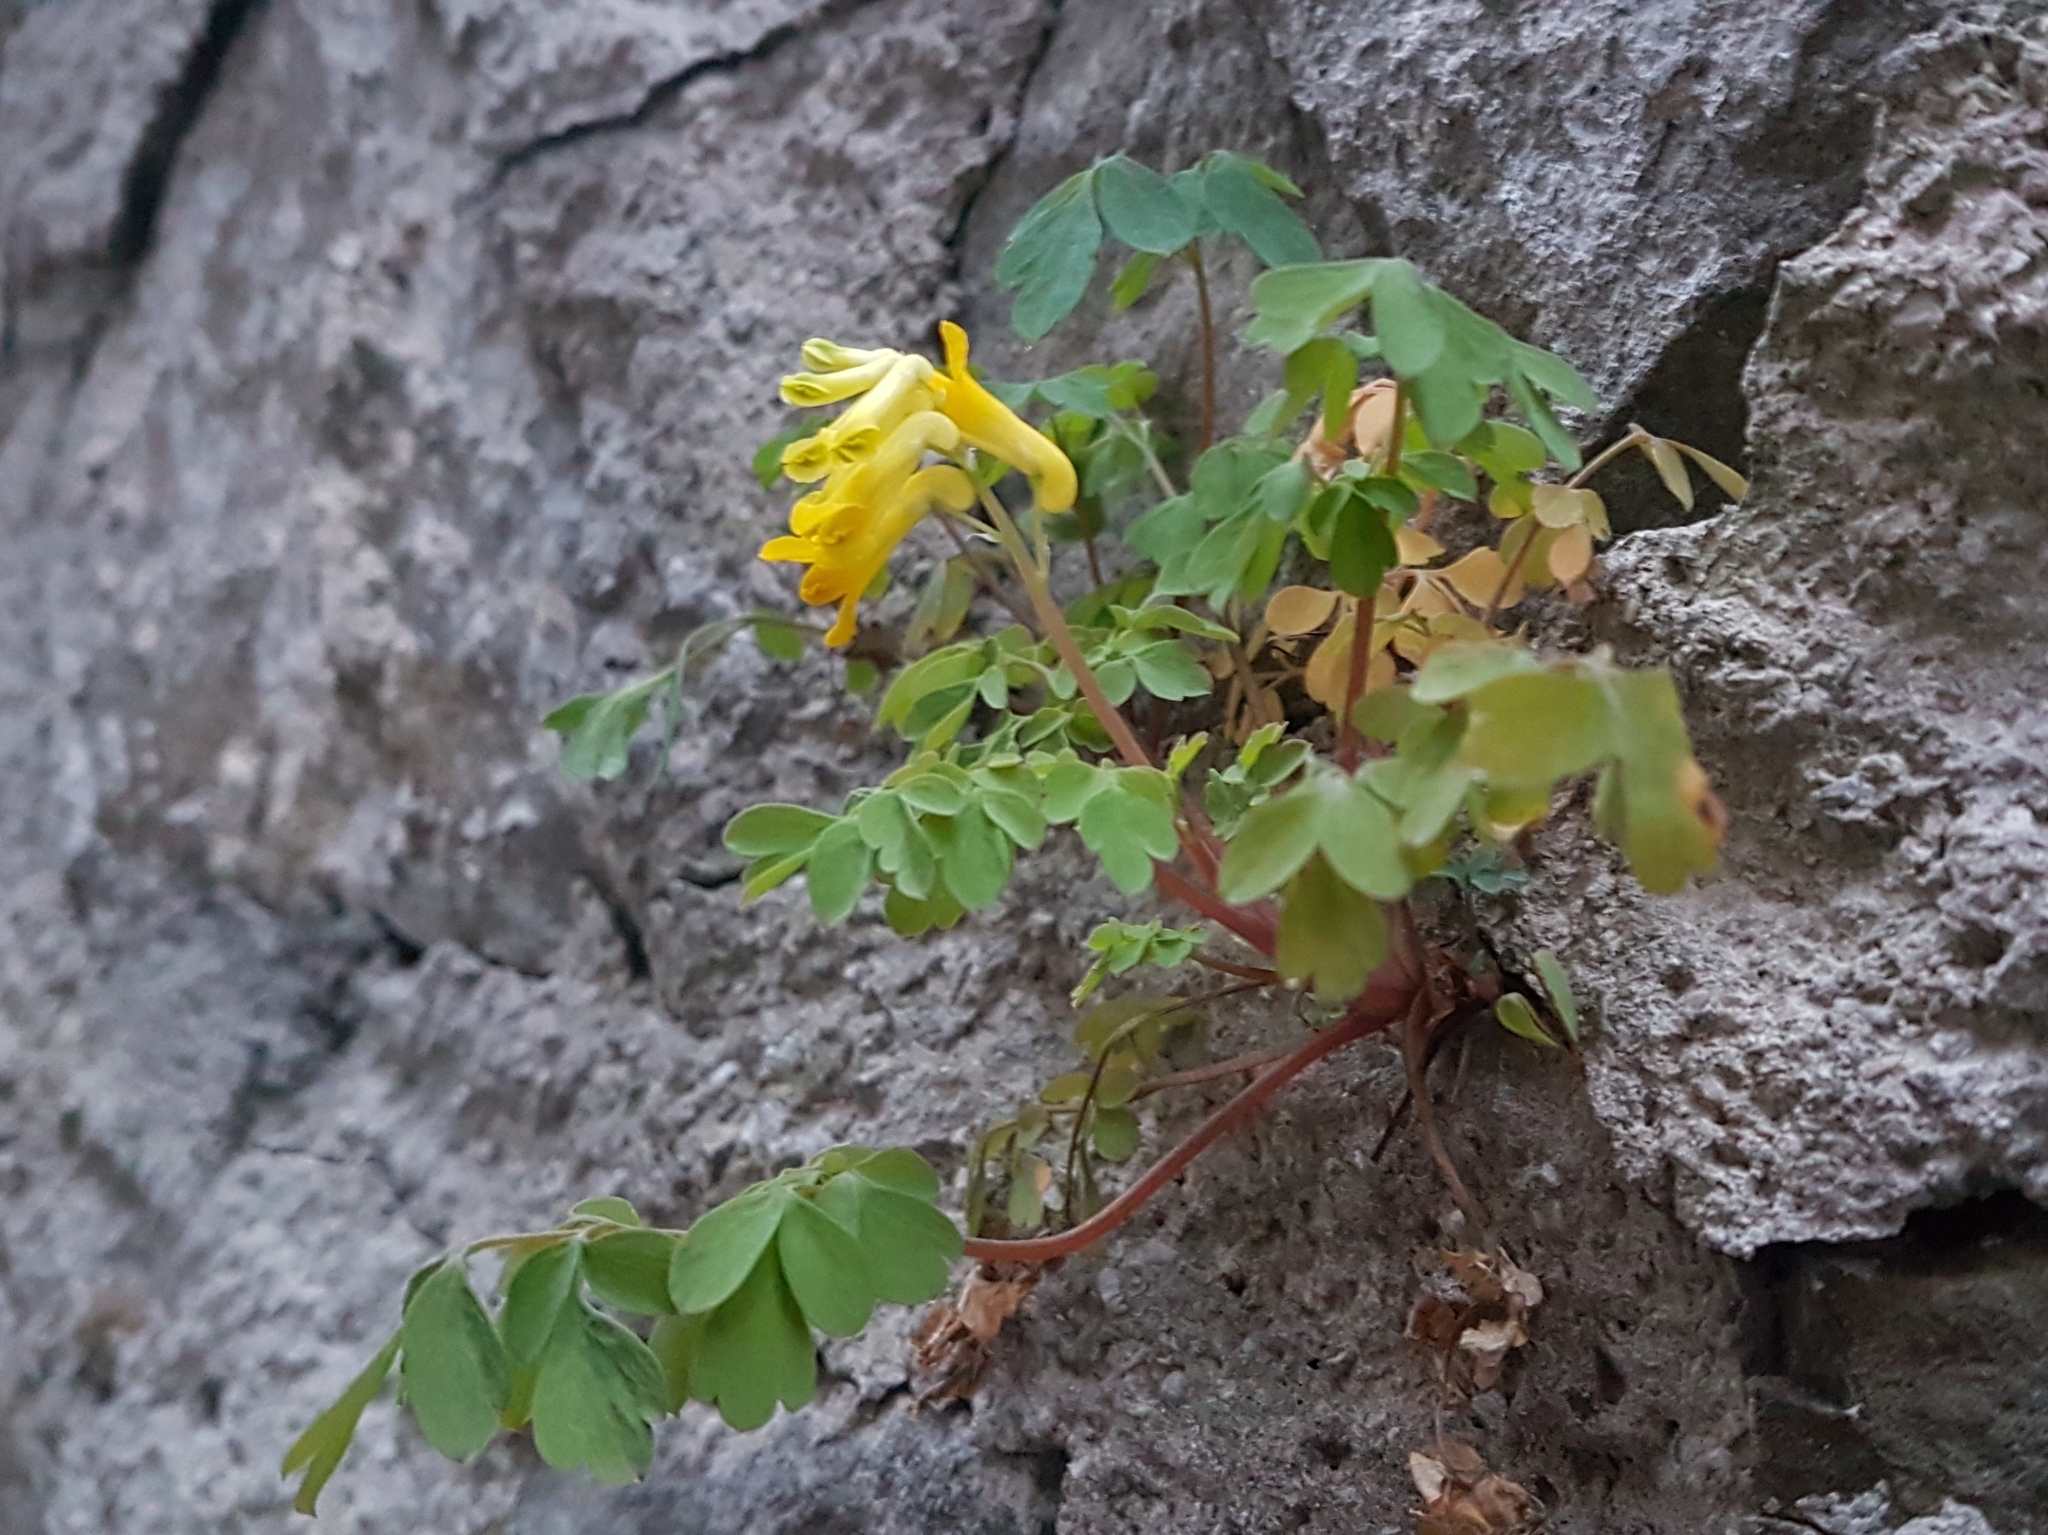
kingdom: Plantae
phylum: Tracheophyta
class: Magnoliopsida
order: Ranunculales
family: Papaveraceae
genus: Pseudofumaria
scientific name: Pseudofumaria lutea
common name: Yellow corydalis
